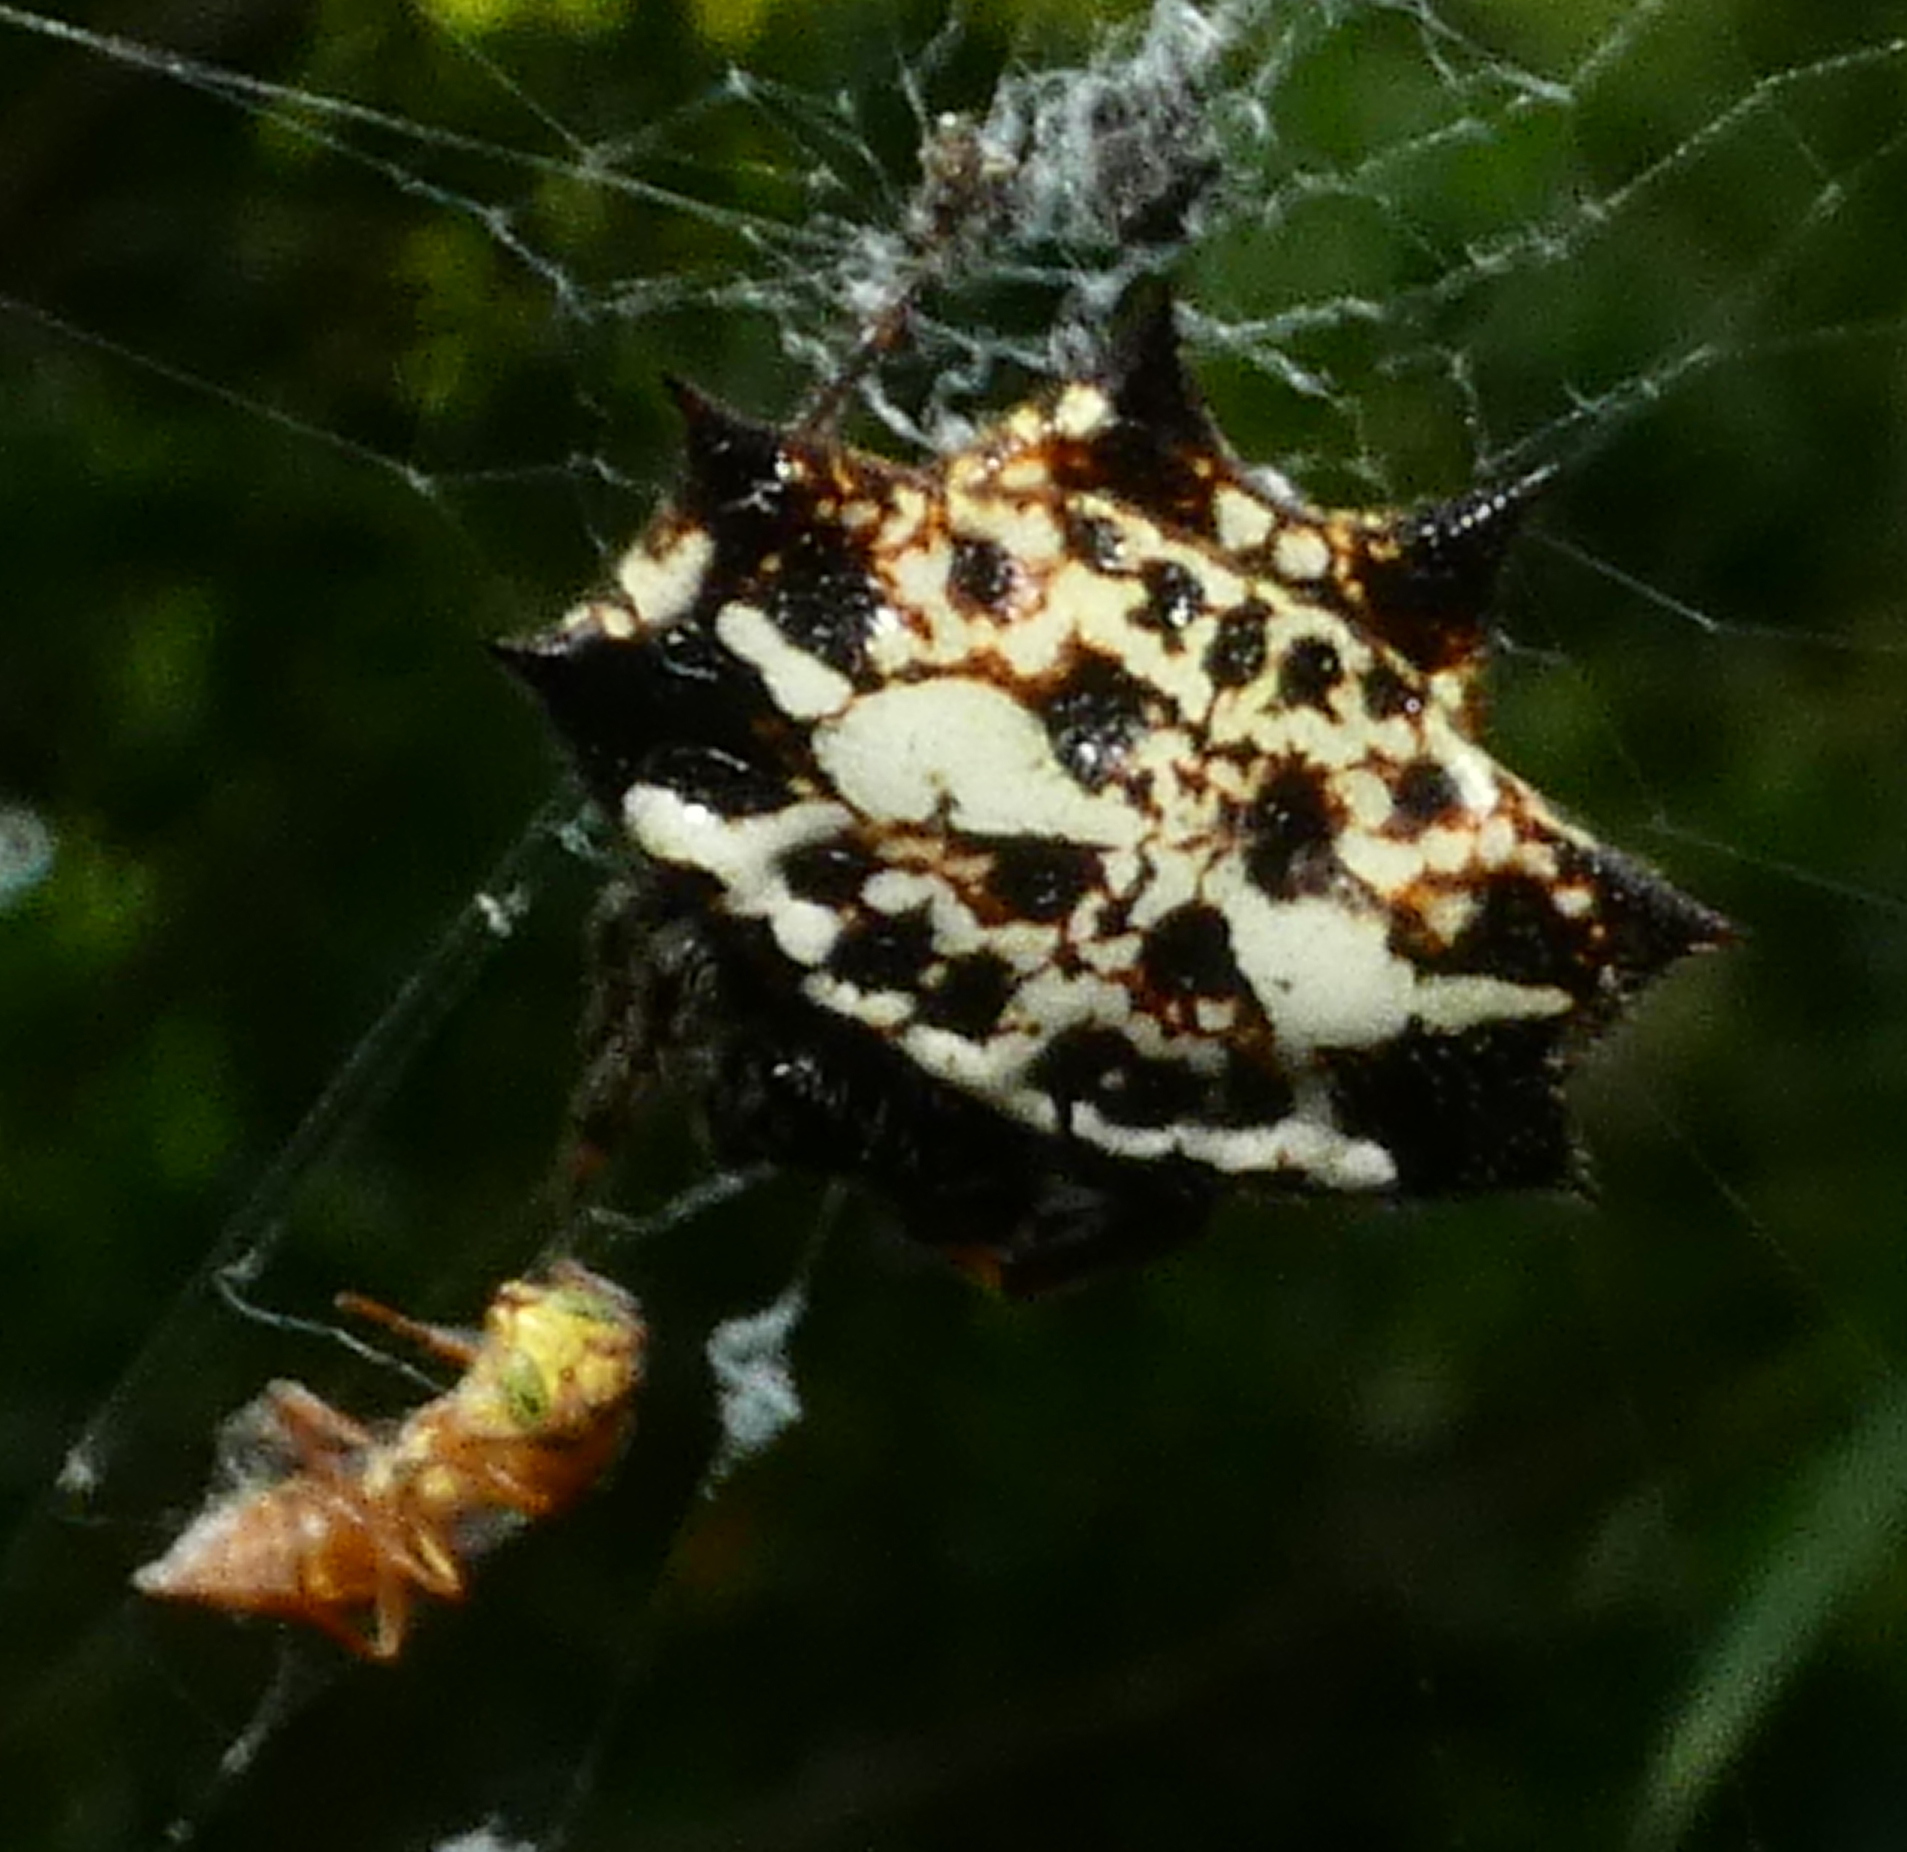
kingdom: Animalia
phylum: Arthropoda
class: Arachnida
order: Araneae
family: Araneidae
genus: Gasteracantha
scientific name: Gasteracantha cancriformis
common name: Orb weavers
